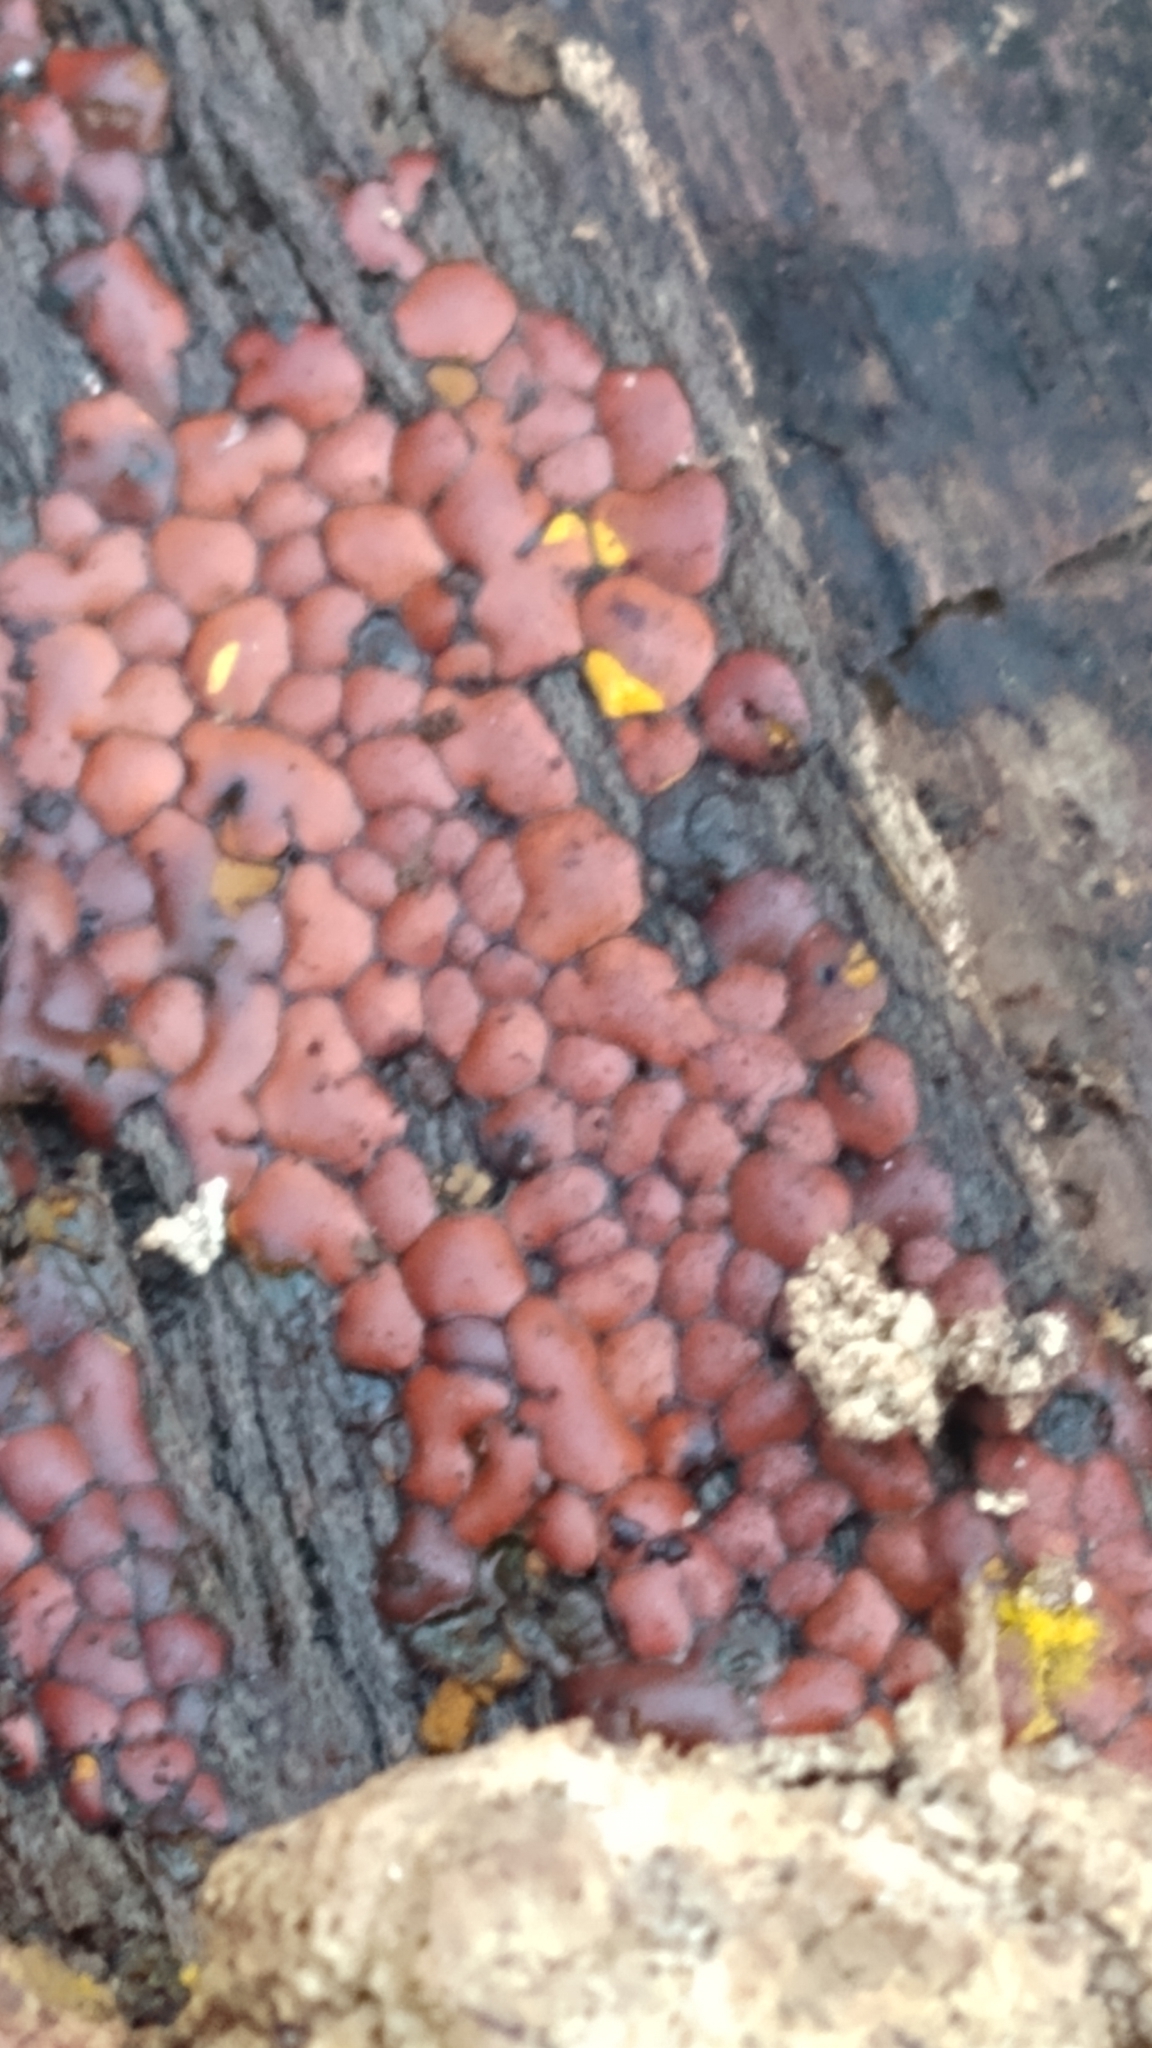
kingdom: Protozoa
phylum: Mycetozoa
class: Myxomycetes
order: Trichiales
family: Trichiaceae
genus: Perichaena
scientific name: Perichaena depressa
